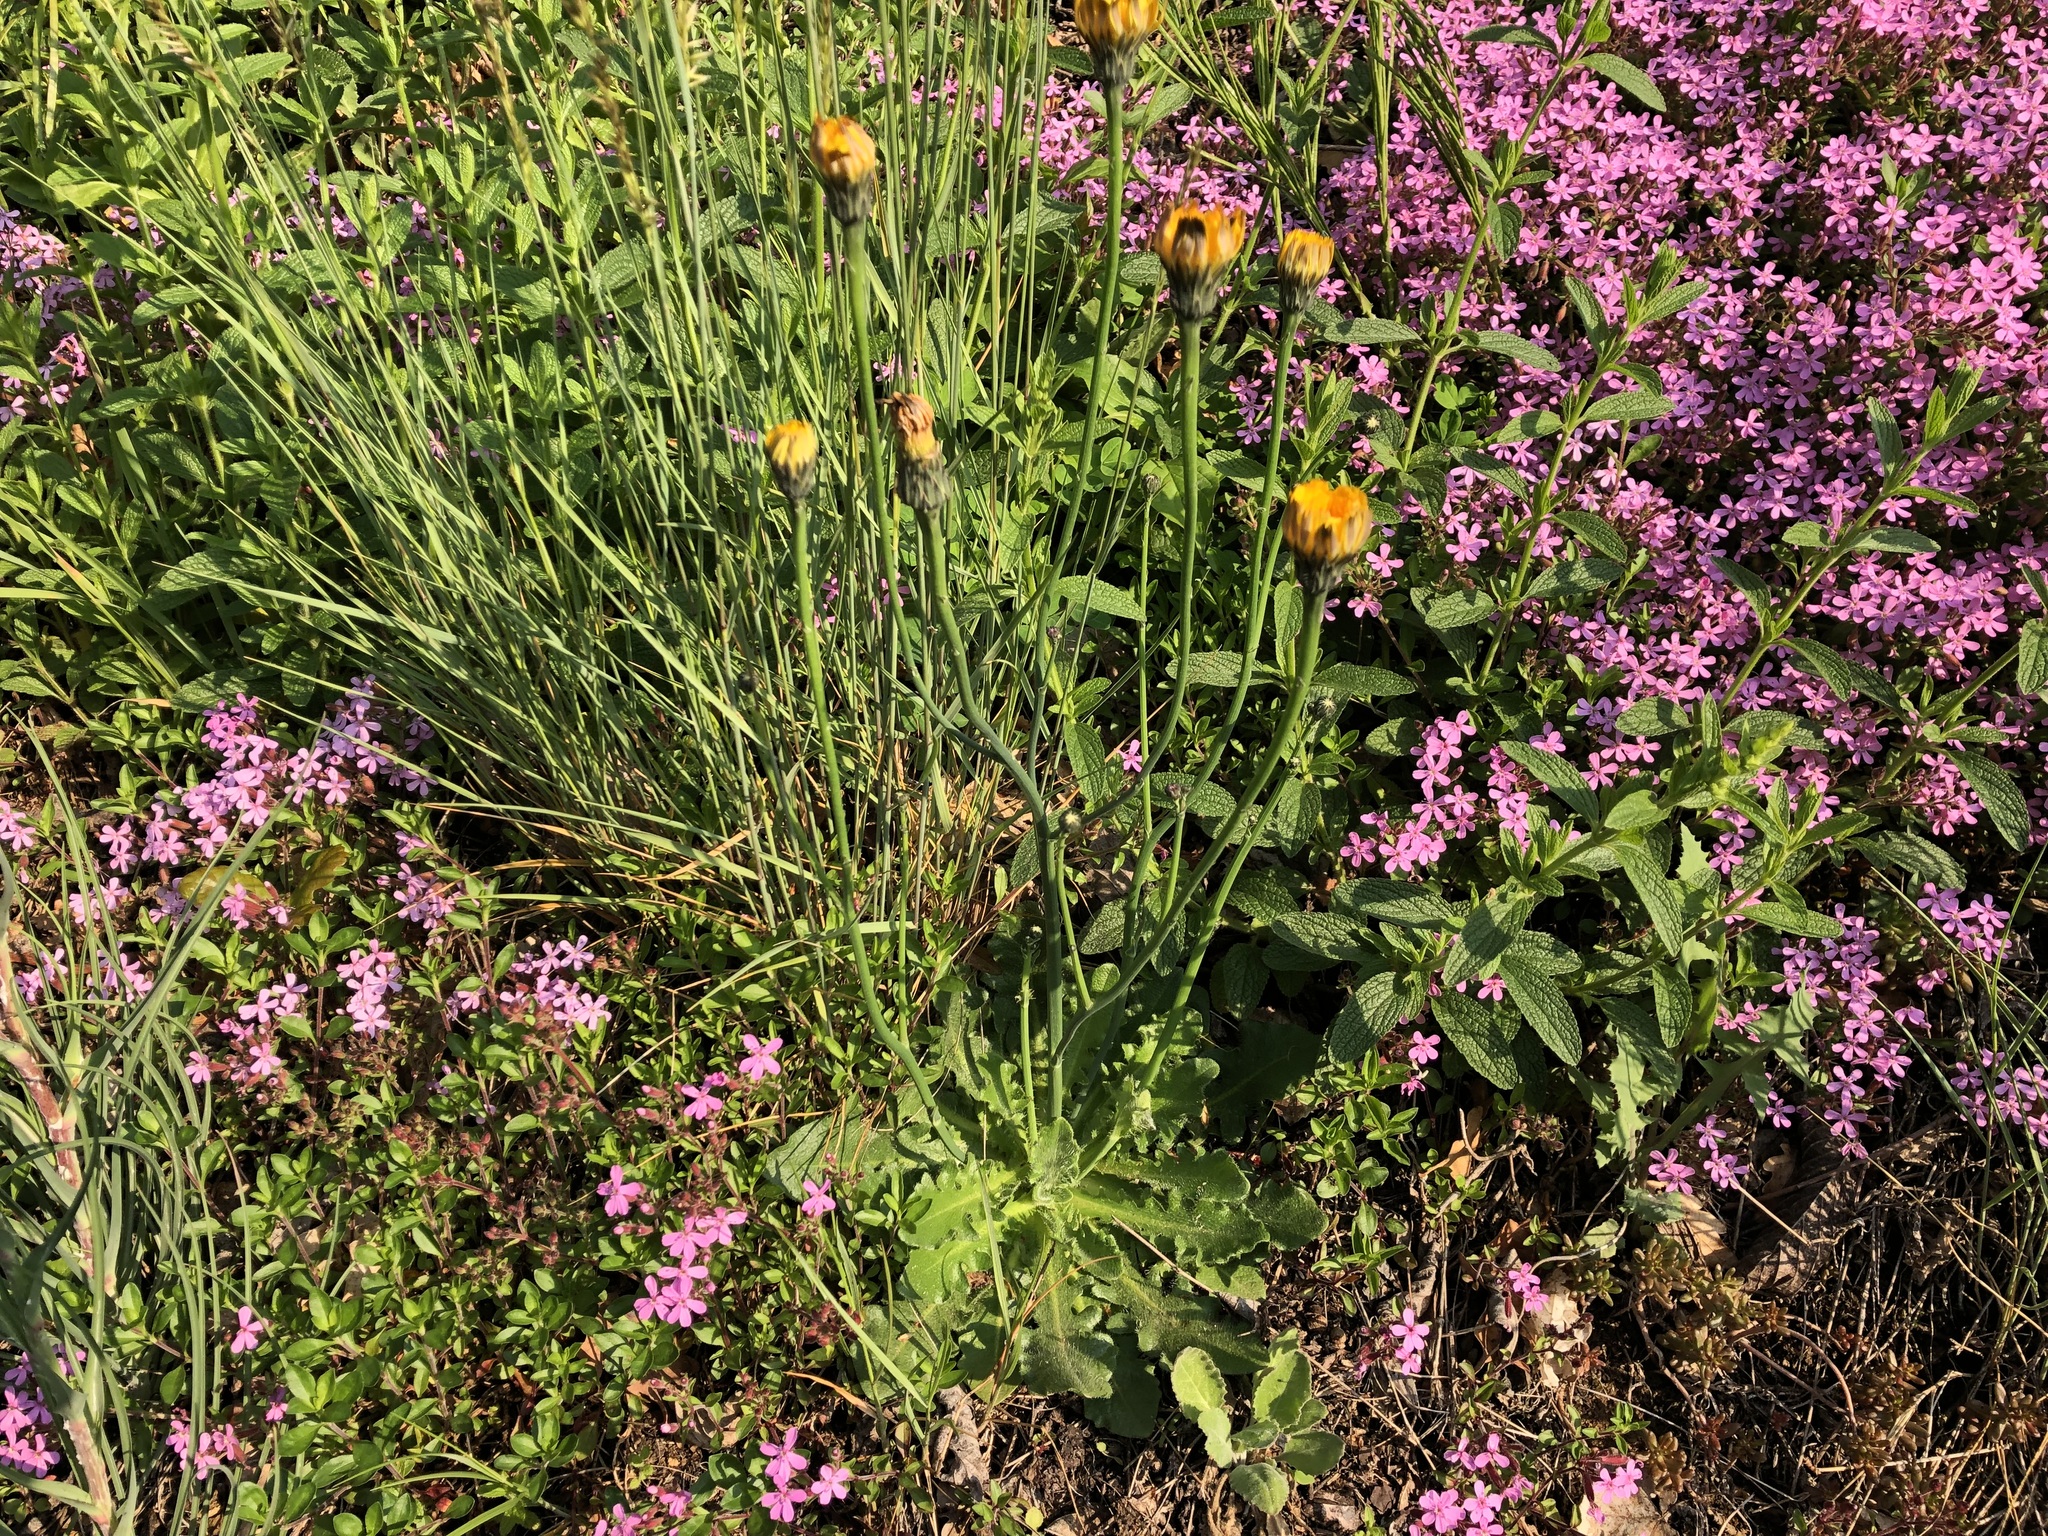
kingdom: Plantae
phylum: Tracheophyta
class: Magnoliopsida
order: Asterales
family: Asteraceae
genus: Hypochaeris
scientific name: Hypochaeris radicata
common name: Flatweed
